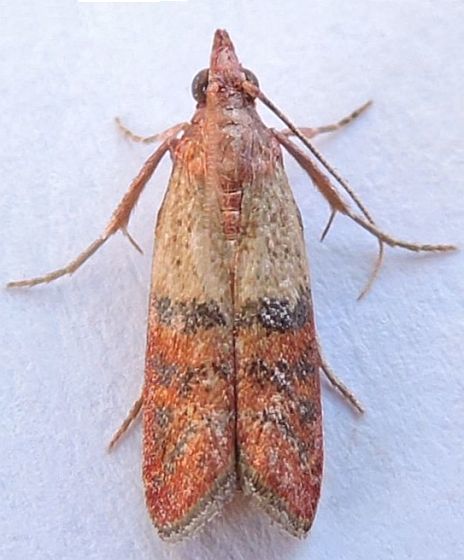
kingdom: Animalia
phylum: Arthropoda
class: Insecta
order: Lepidoptera
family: Pyralidae
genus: Plodia
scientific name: Plodia interpunctella
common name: Indian meal moth
